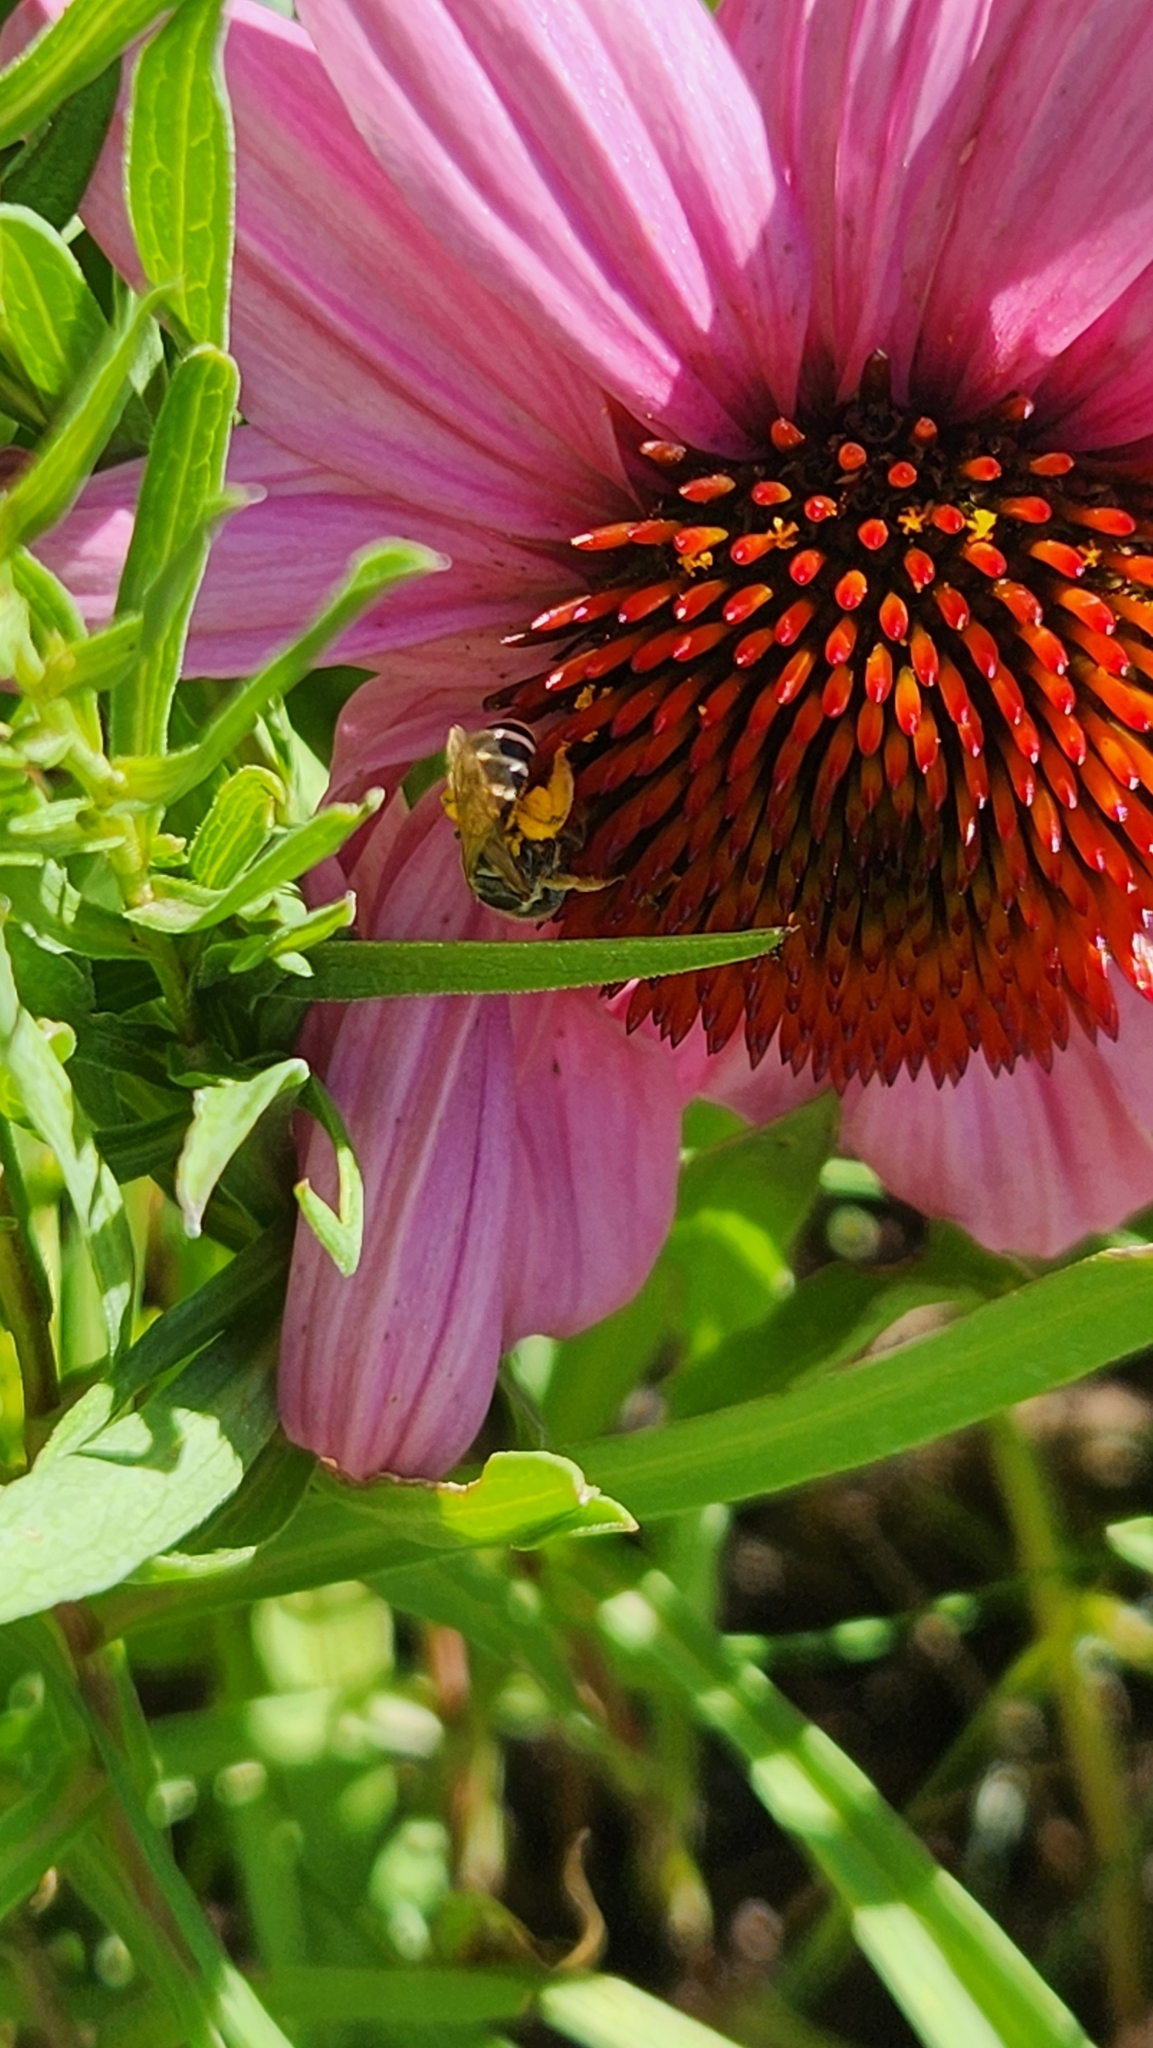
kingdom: Animalia
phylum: Arthropoda
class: Insecta
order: Hymenoptera
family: Halictidae
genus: Halictus
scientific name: Halictus ligatus
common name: Ligated furrow bee
